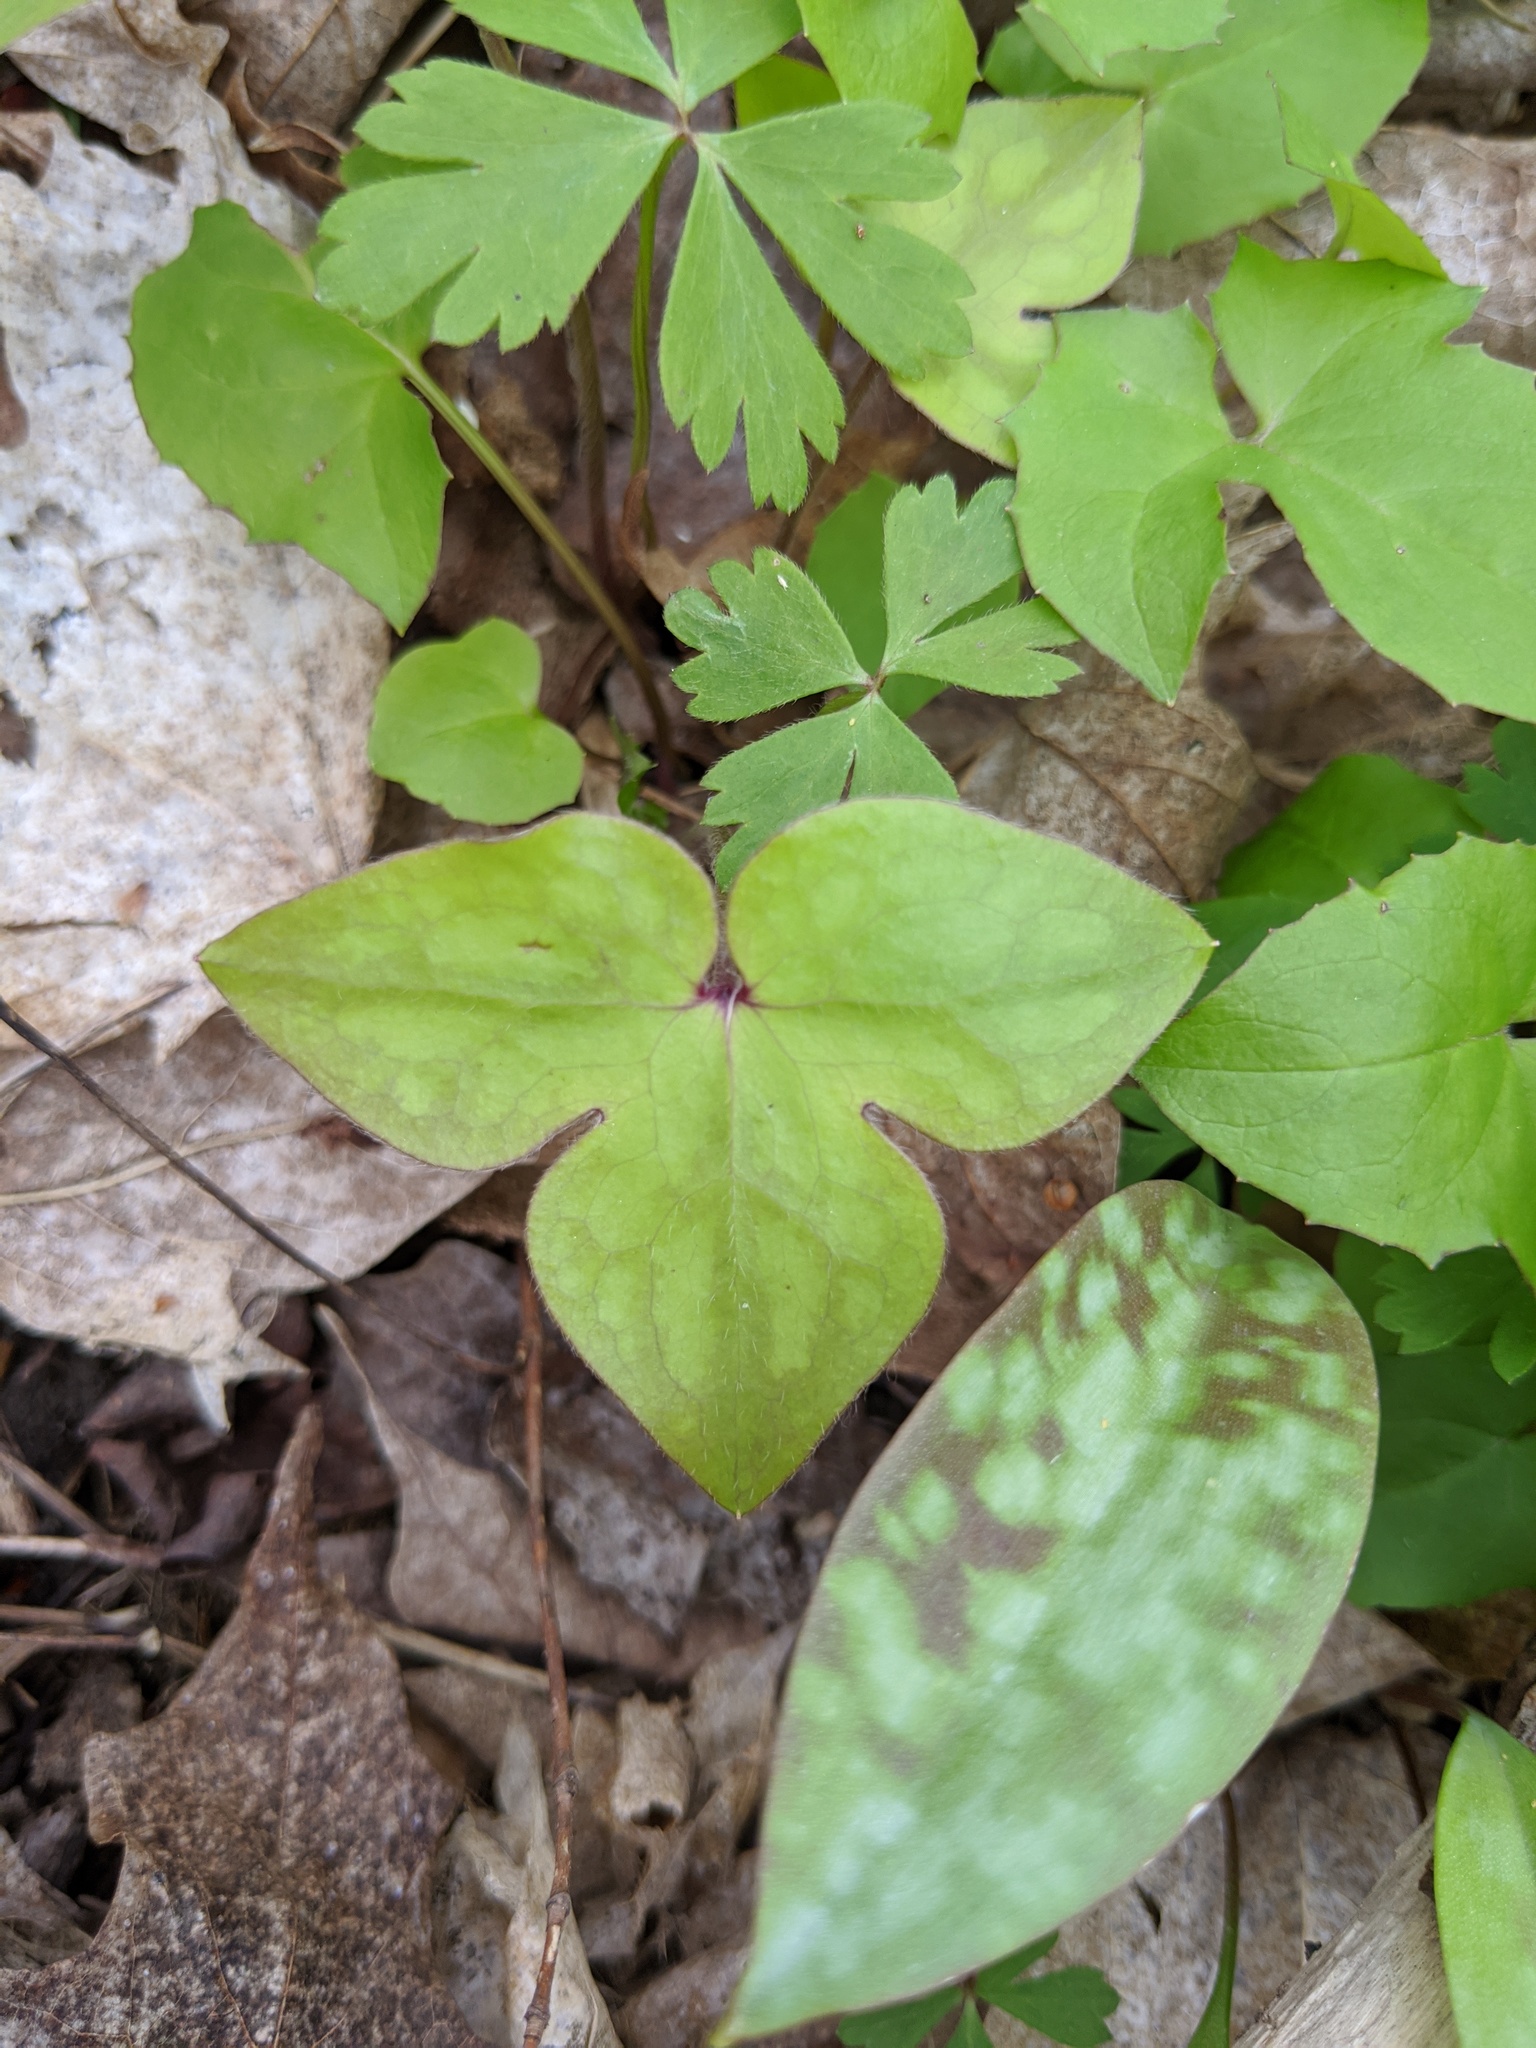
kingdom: Plantae
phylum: Tracheophyta
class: Magnoliopsida
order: Ranunculales
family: Ranunculaceae
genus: Hepatica
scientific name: Hepatica acutiloba
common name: Sharp-lobed hepatica
